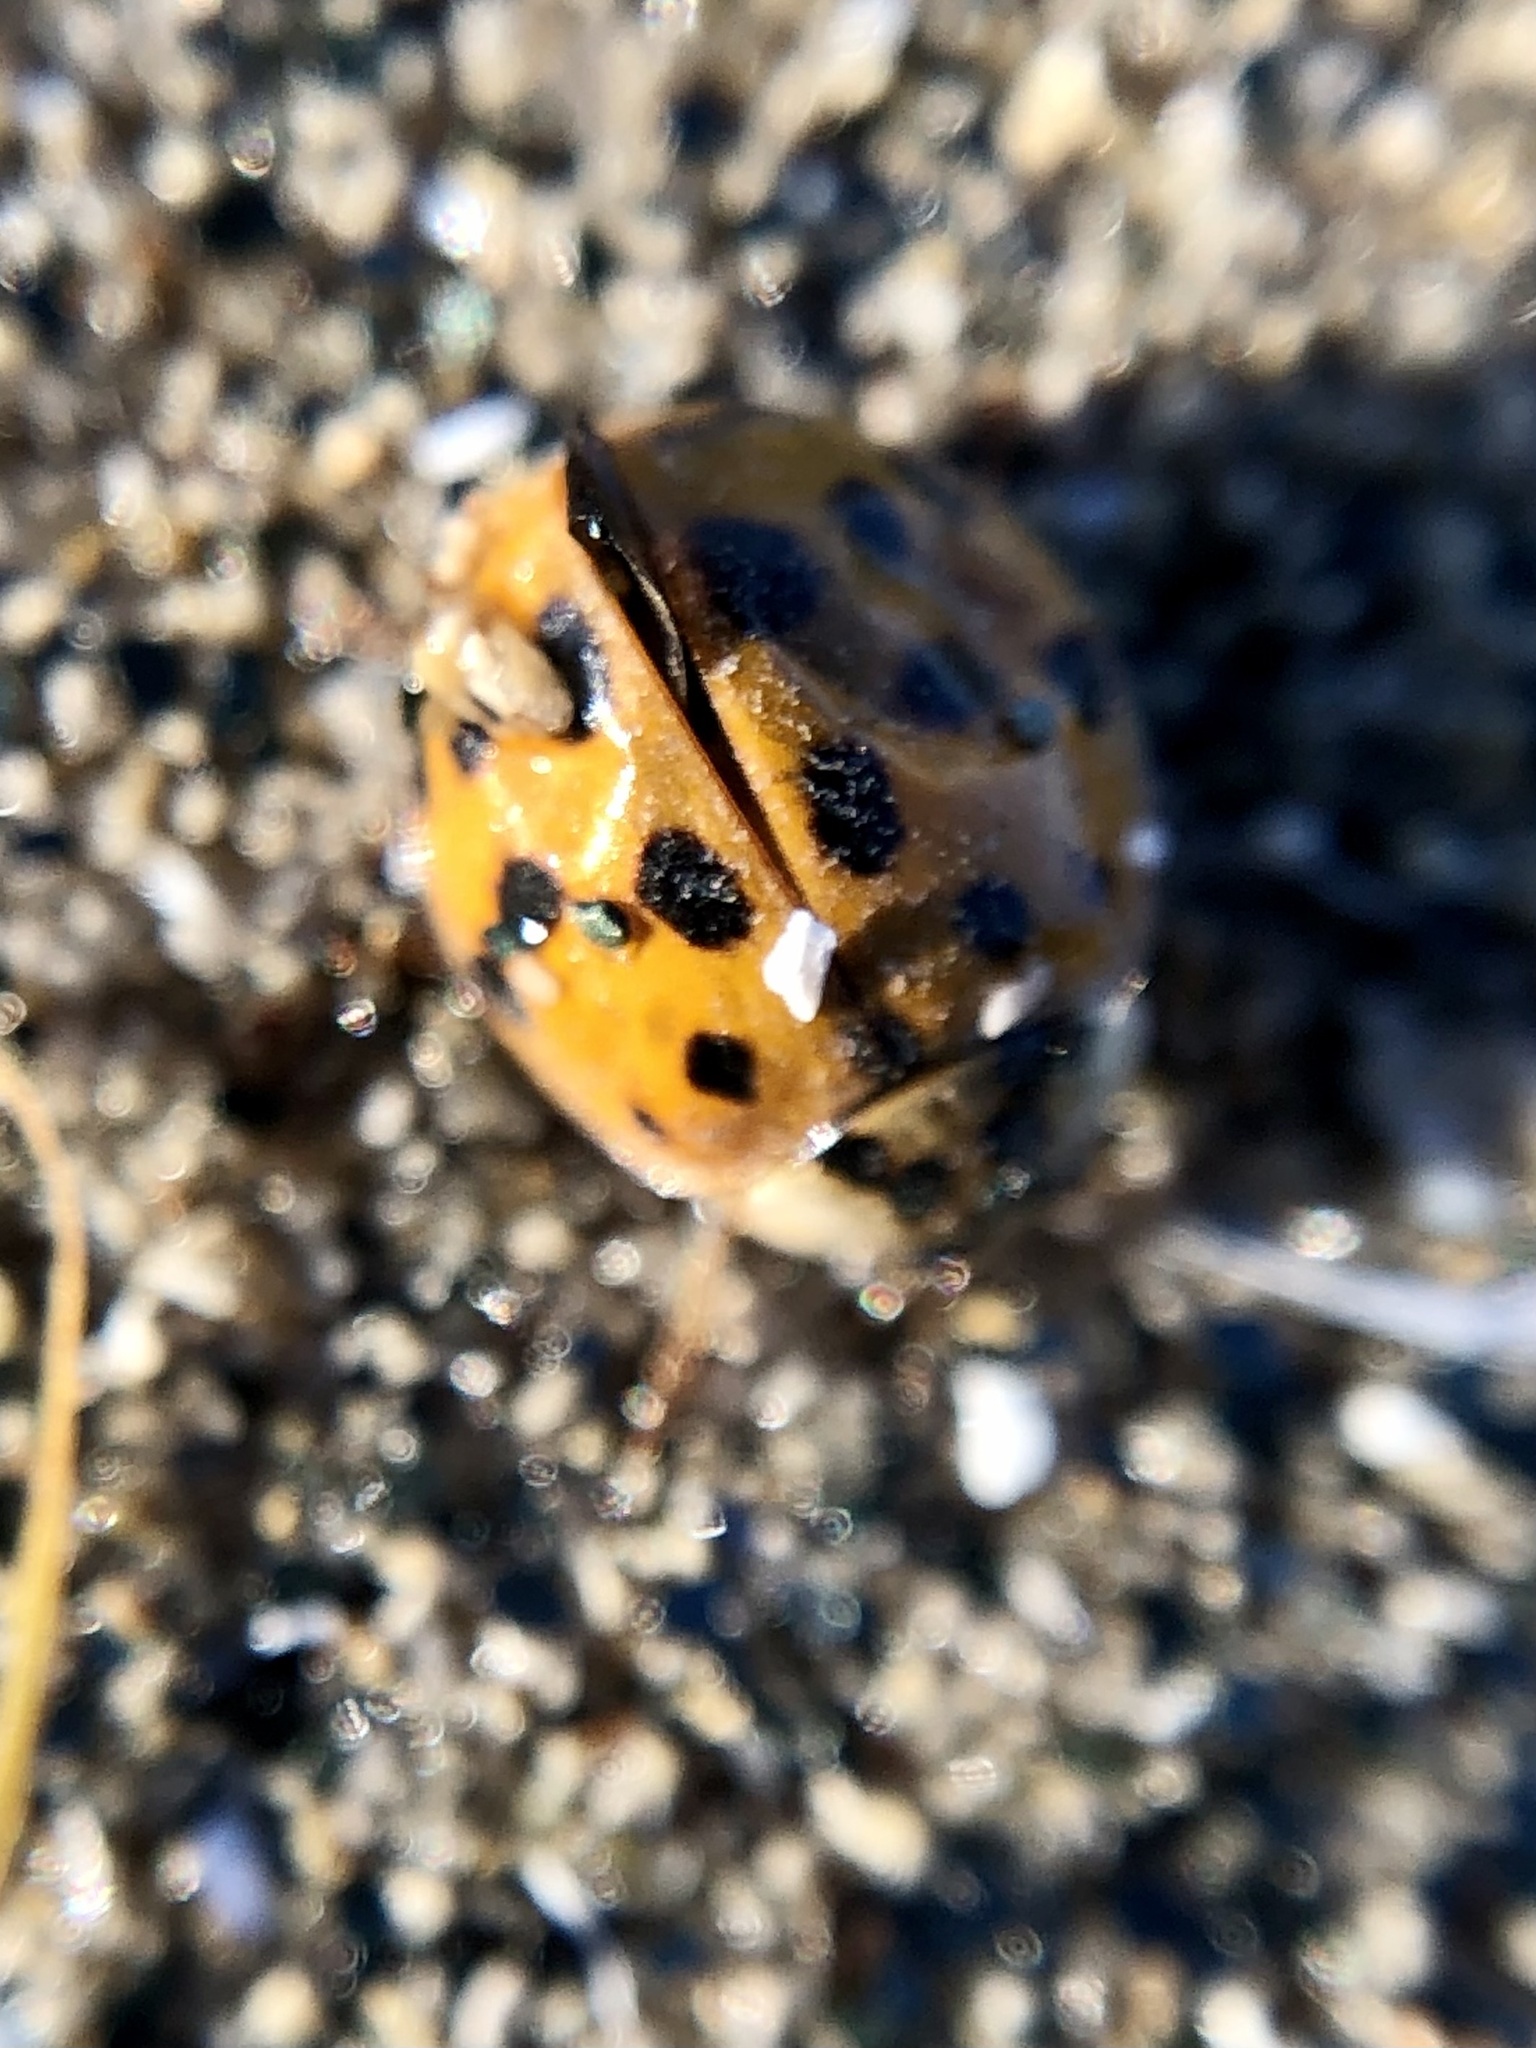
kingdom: Animalia
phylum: Arthropoda
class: Insecta
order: Coleoptera
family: Coccinellidae
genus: Harmonia
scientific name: Harmonia axyridis
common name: Harlequin ladybird
